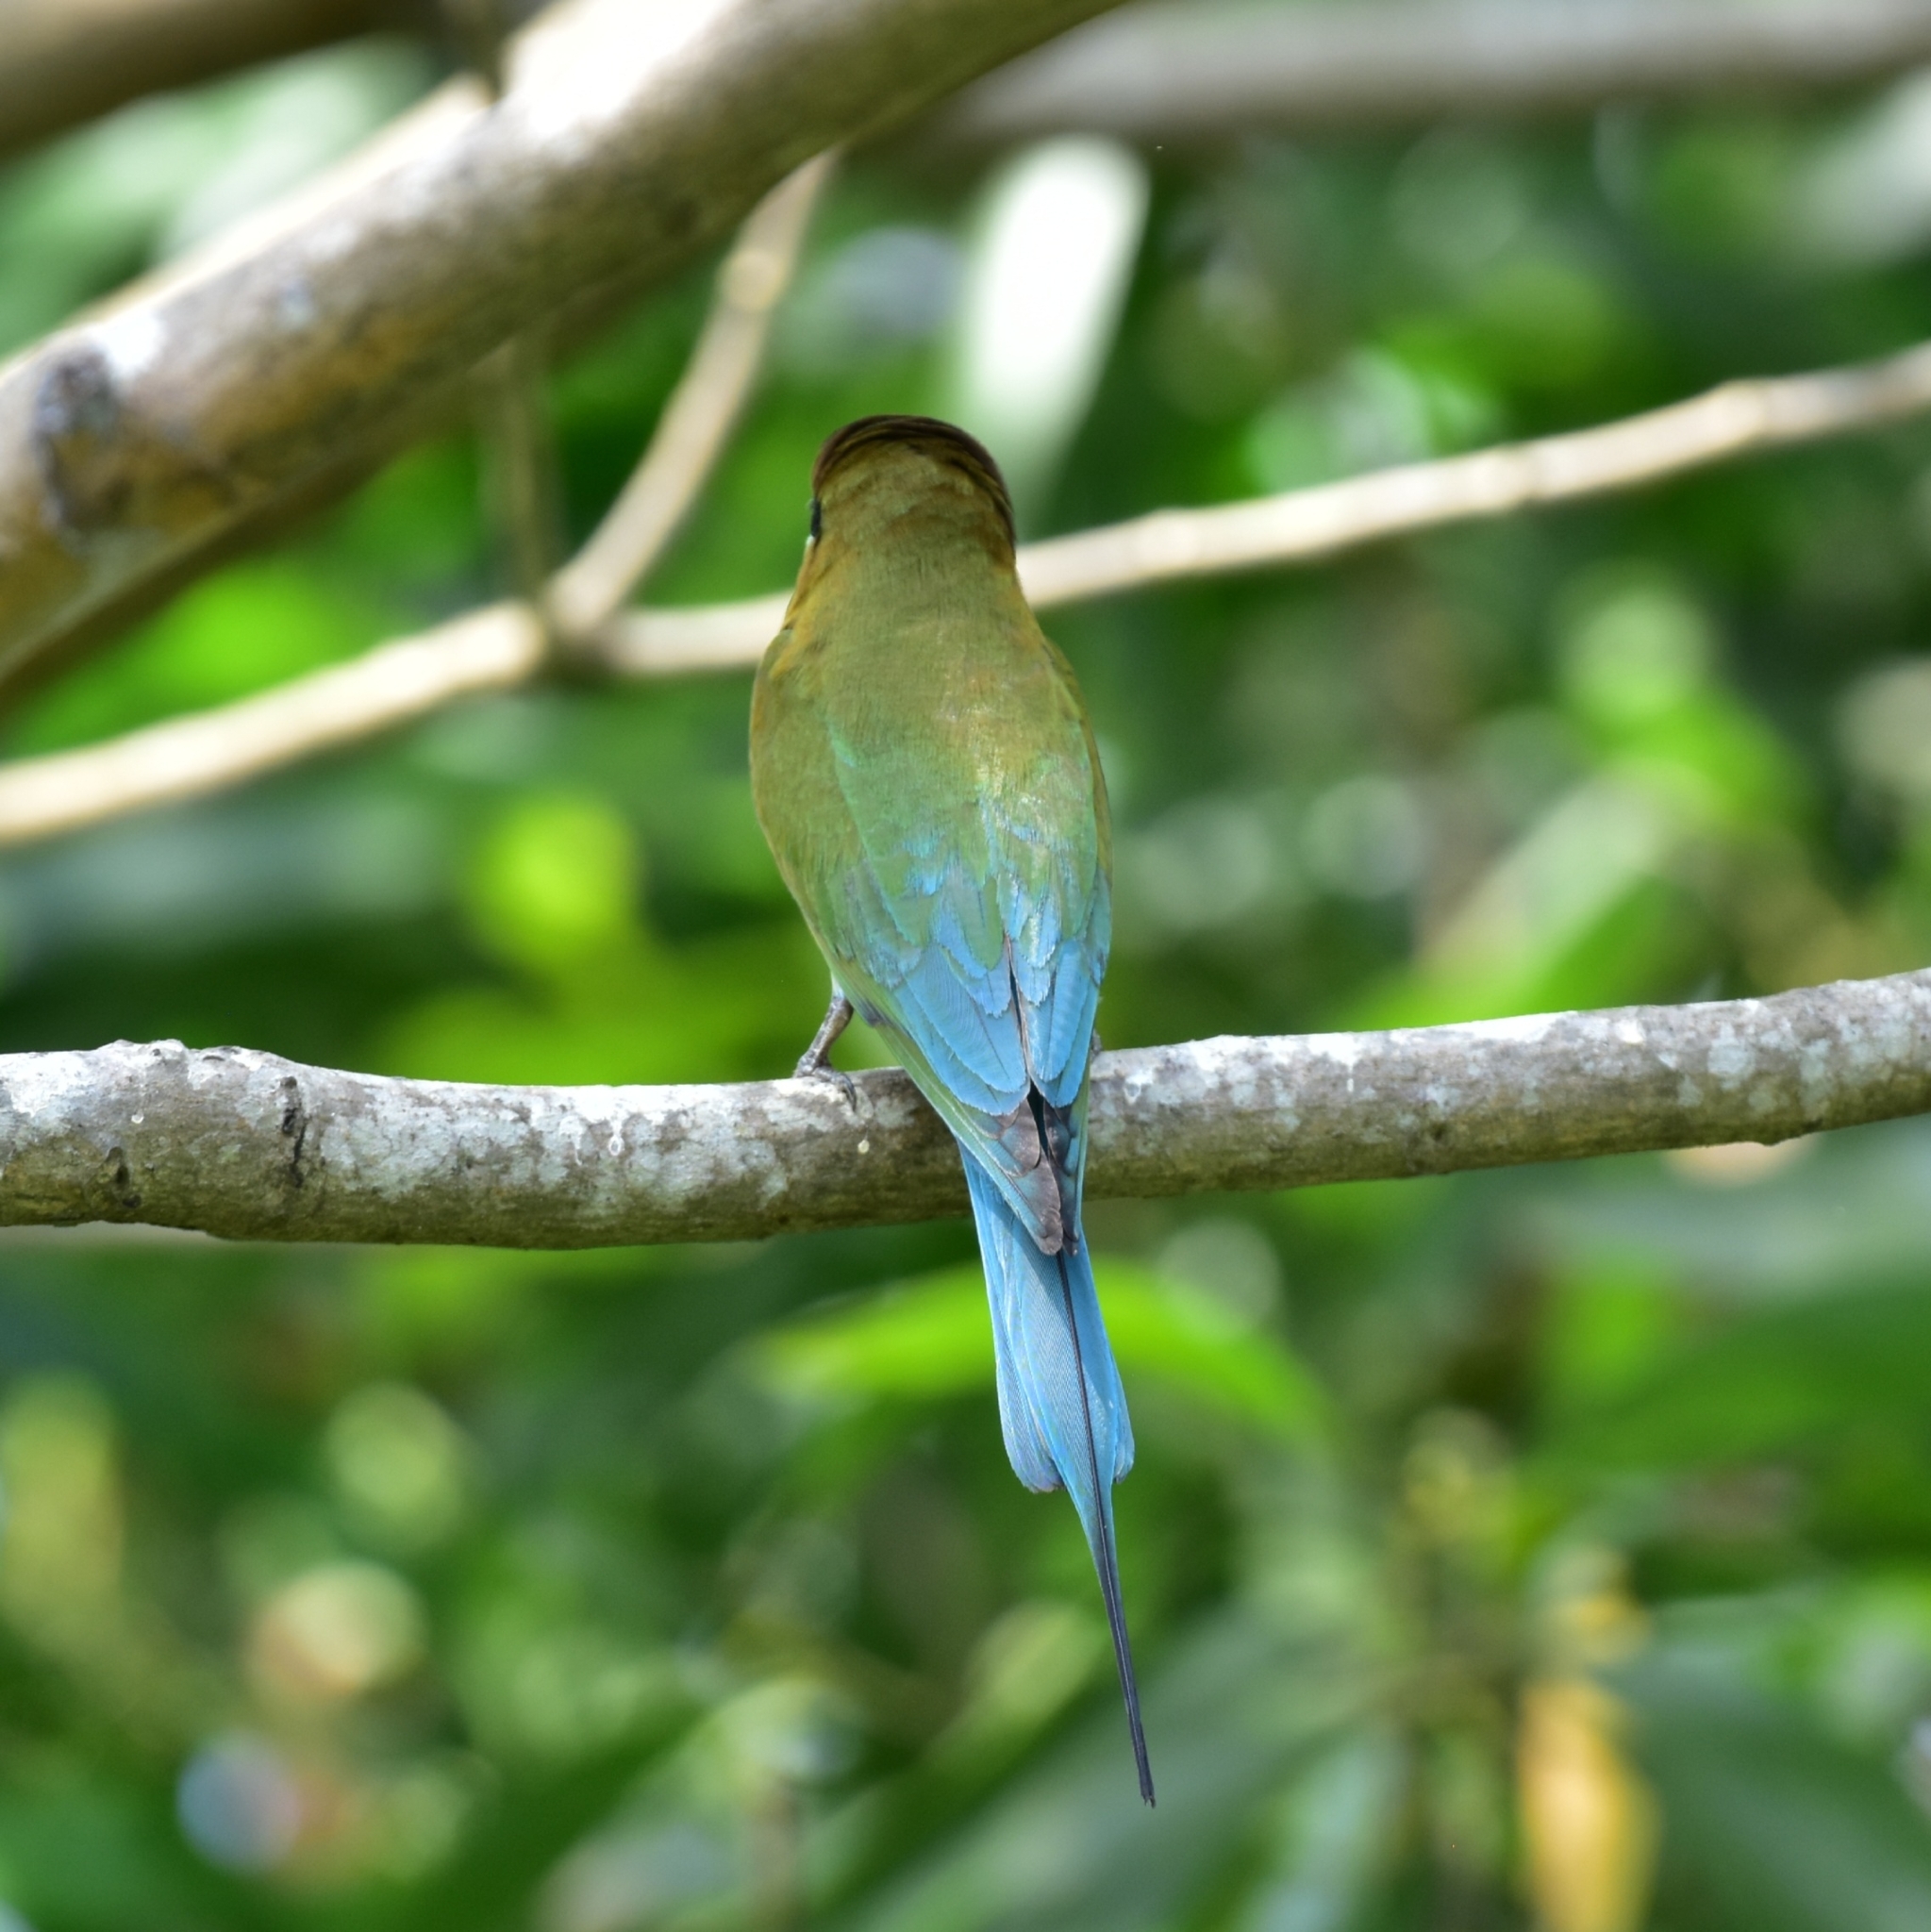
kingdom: Animalia
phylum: Chordata
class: Aves
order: Coraciiformes
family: Meropidae
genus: Merops
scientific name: Merops philippinus
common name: Blue-tailed bee-eater
